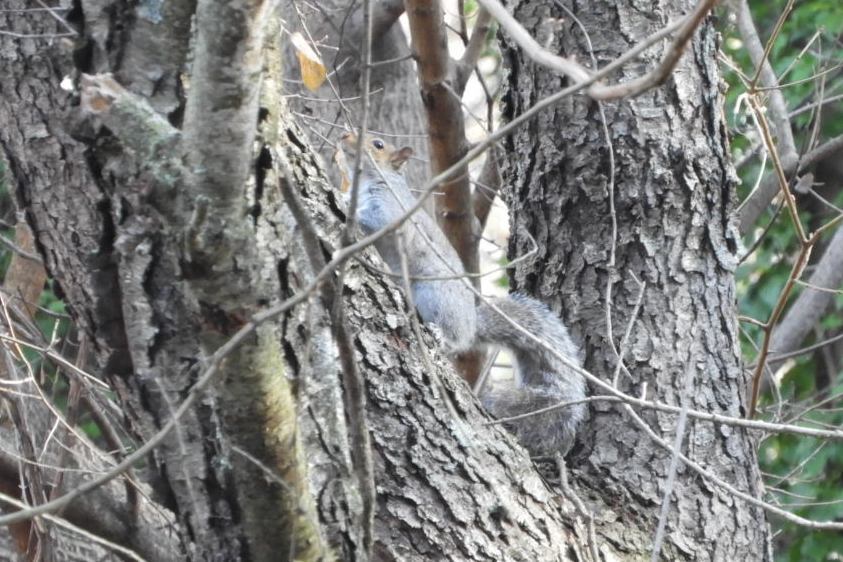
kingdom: Animalia
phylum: Chordata
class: Mammalia
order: Rodentia
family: Sciuridae
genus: Sciurus
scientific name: Sciurus carolinensis
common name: Eastern gray squirrel
